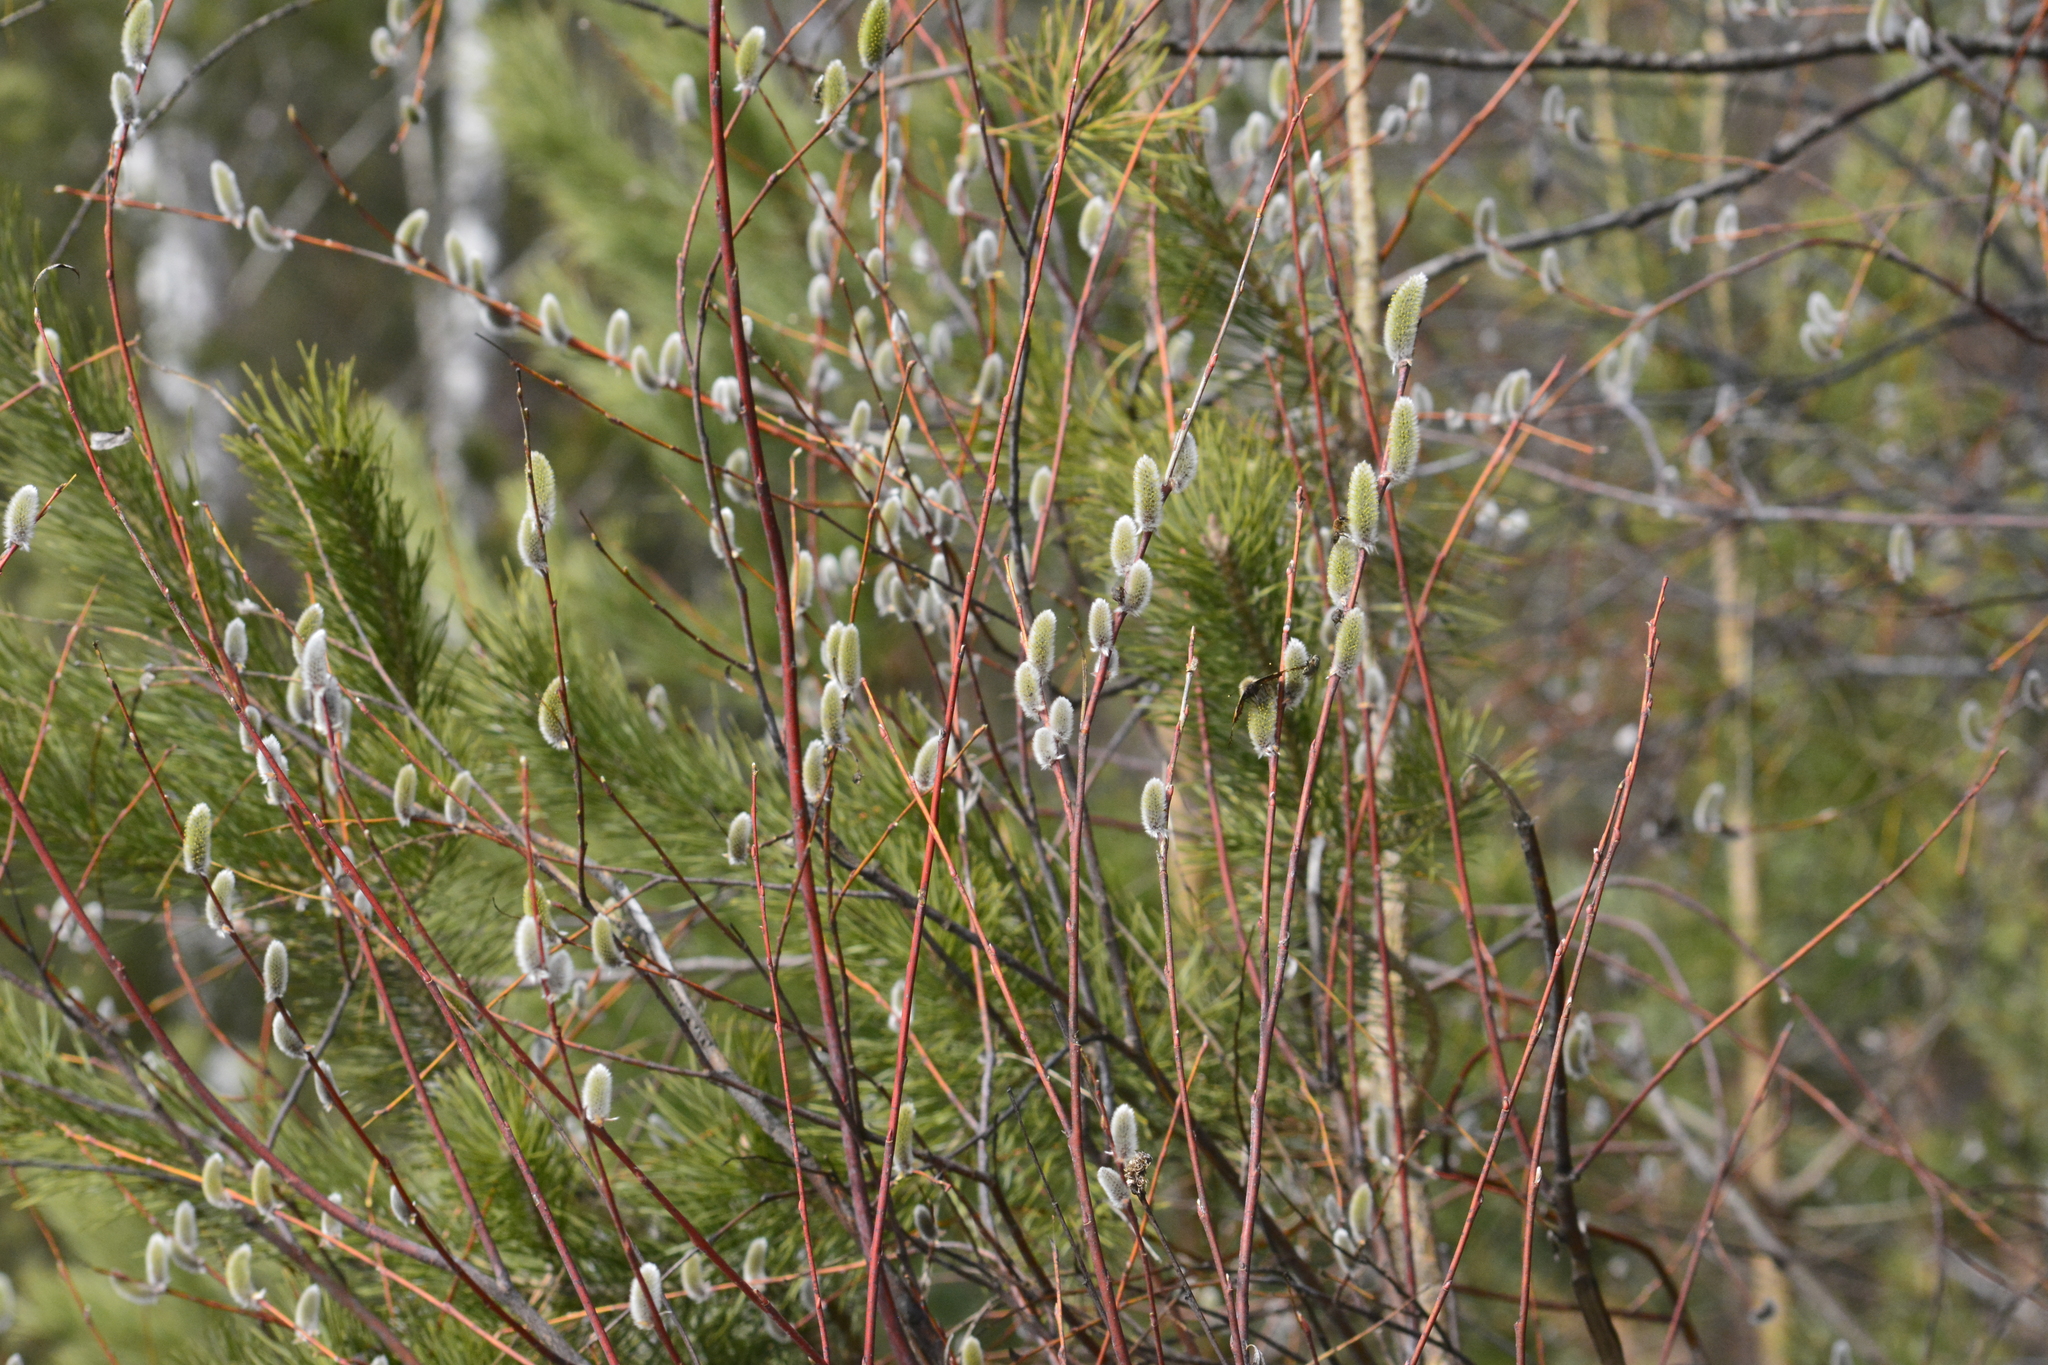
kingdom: Plantae
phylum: Tracheophyta
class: Magnoliopsida
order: Malpighiales
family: Salicaceae
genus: Salix
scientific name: Salix acutifolia
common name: Siberian violet-willow
